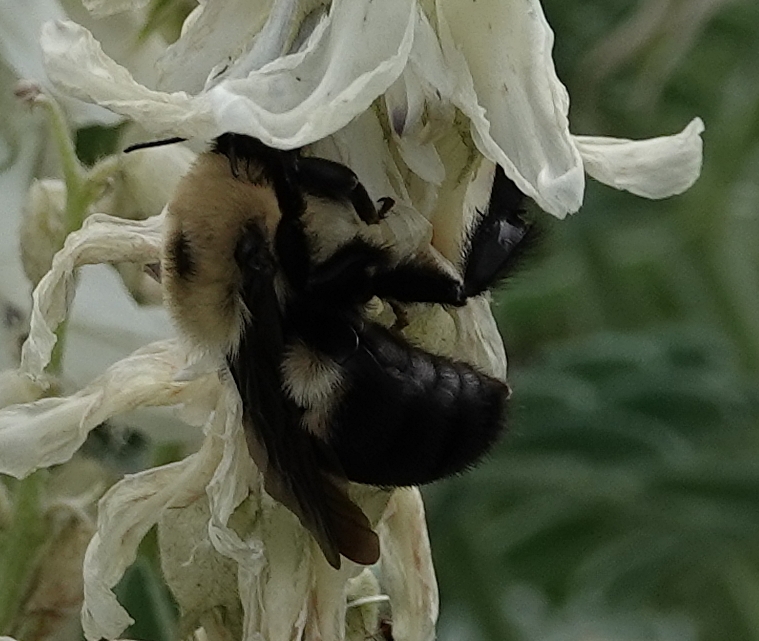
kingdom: Animalia
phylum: Arthropoda
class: Insecta
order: Hymenoptera
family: Apidae
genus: Bombus
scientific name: Bombus griseocollis
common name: Brown-belted bumble bee
